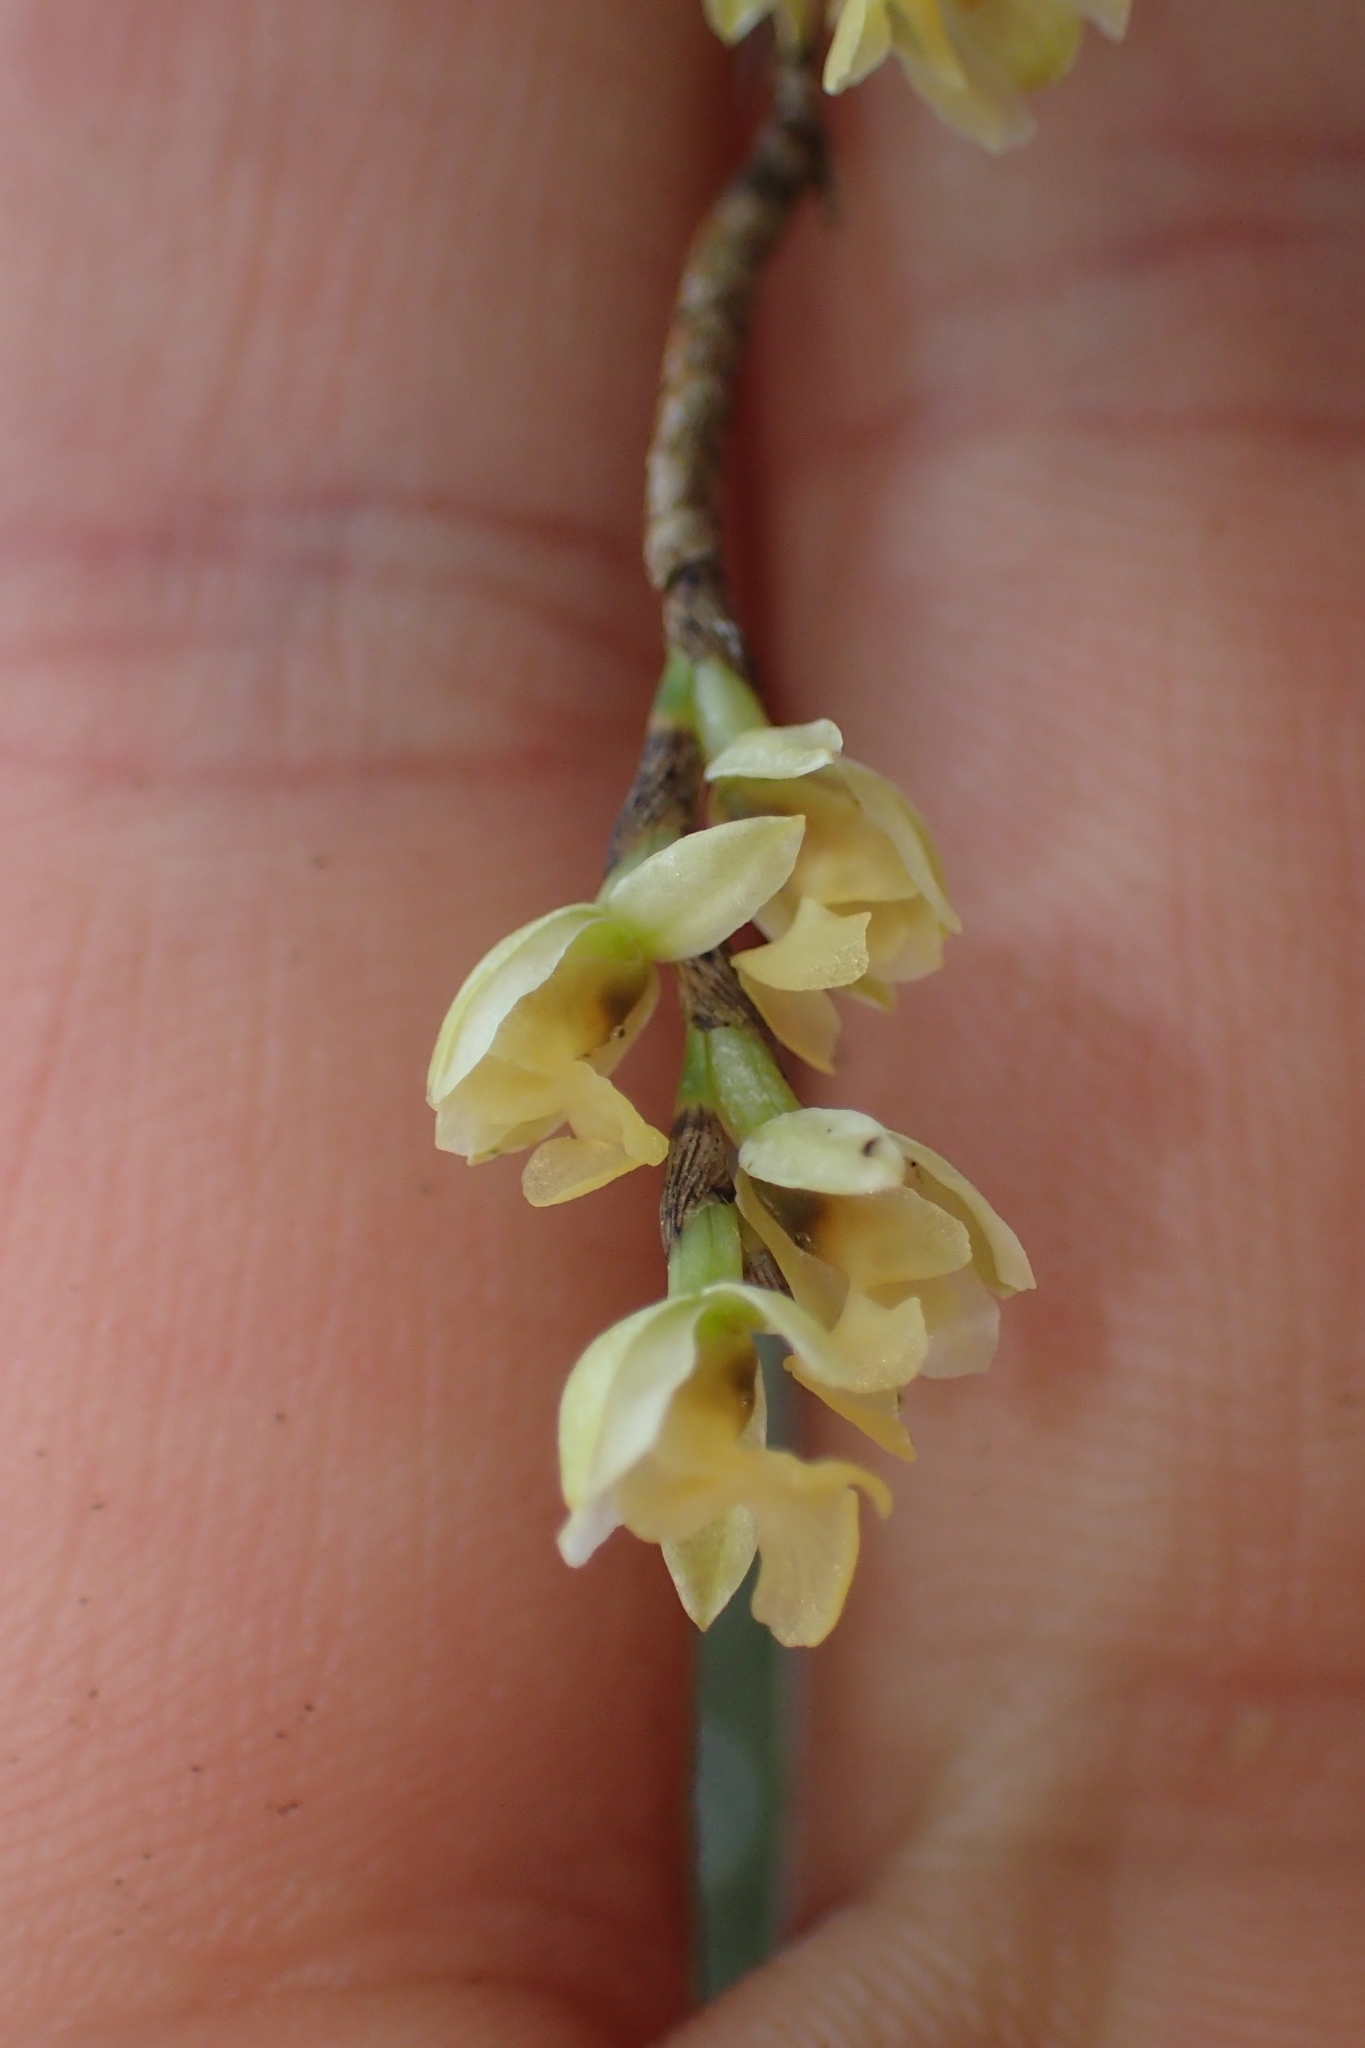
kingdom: Plantae
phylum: Tracheophyta
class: Liliopsida
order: Asparagales
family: Orchidaceae
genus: Earina
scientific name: Earina mucronata
